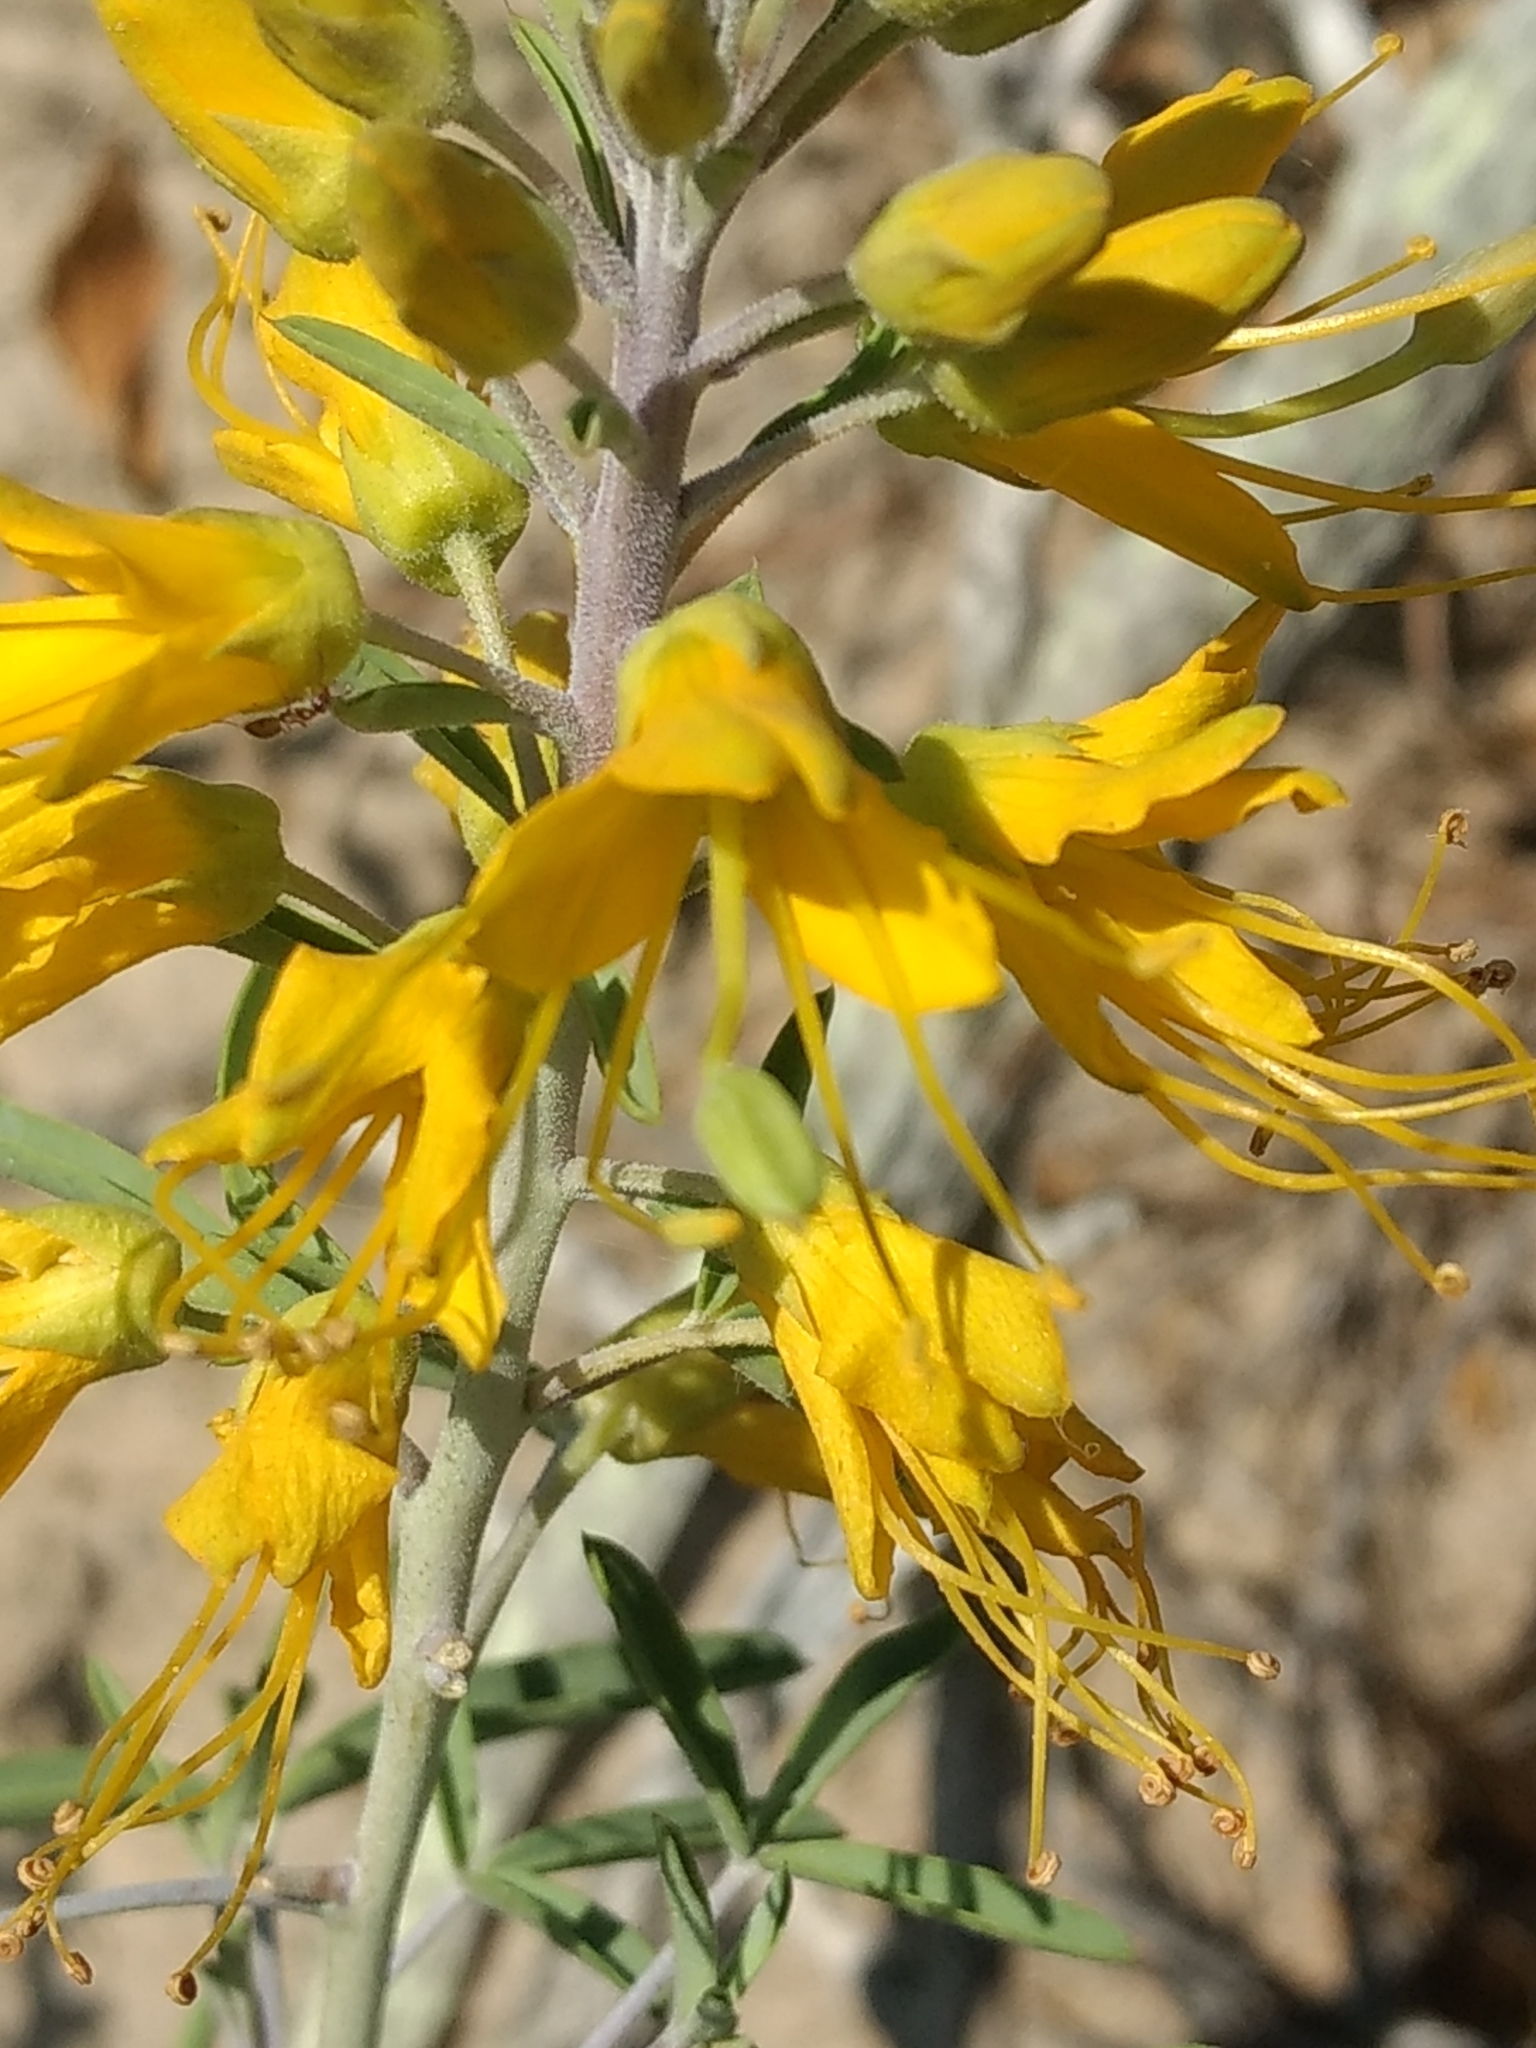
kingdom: Plantae
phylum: Tracheophyta
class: Magnoliopsida
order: Brassicales
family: Cleomaceae
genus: Cleomella
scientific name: Cleomella arborea
